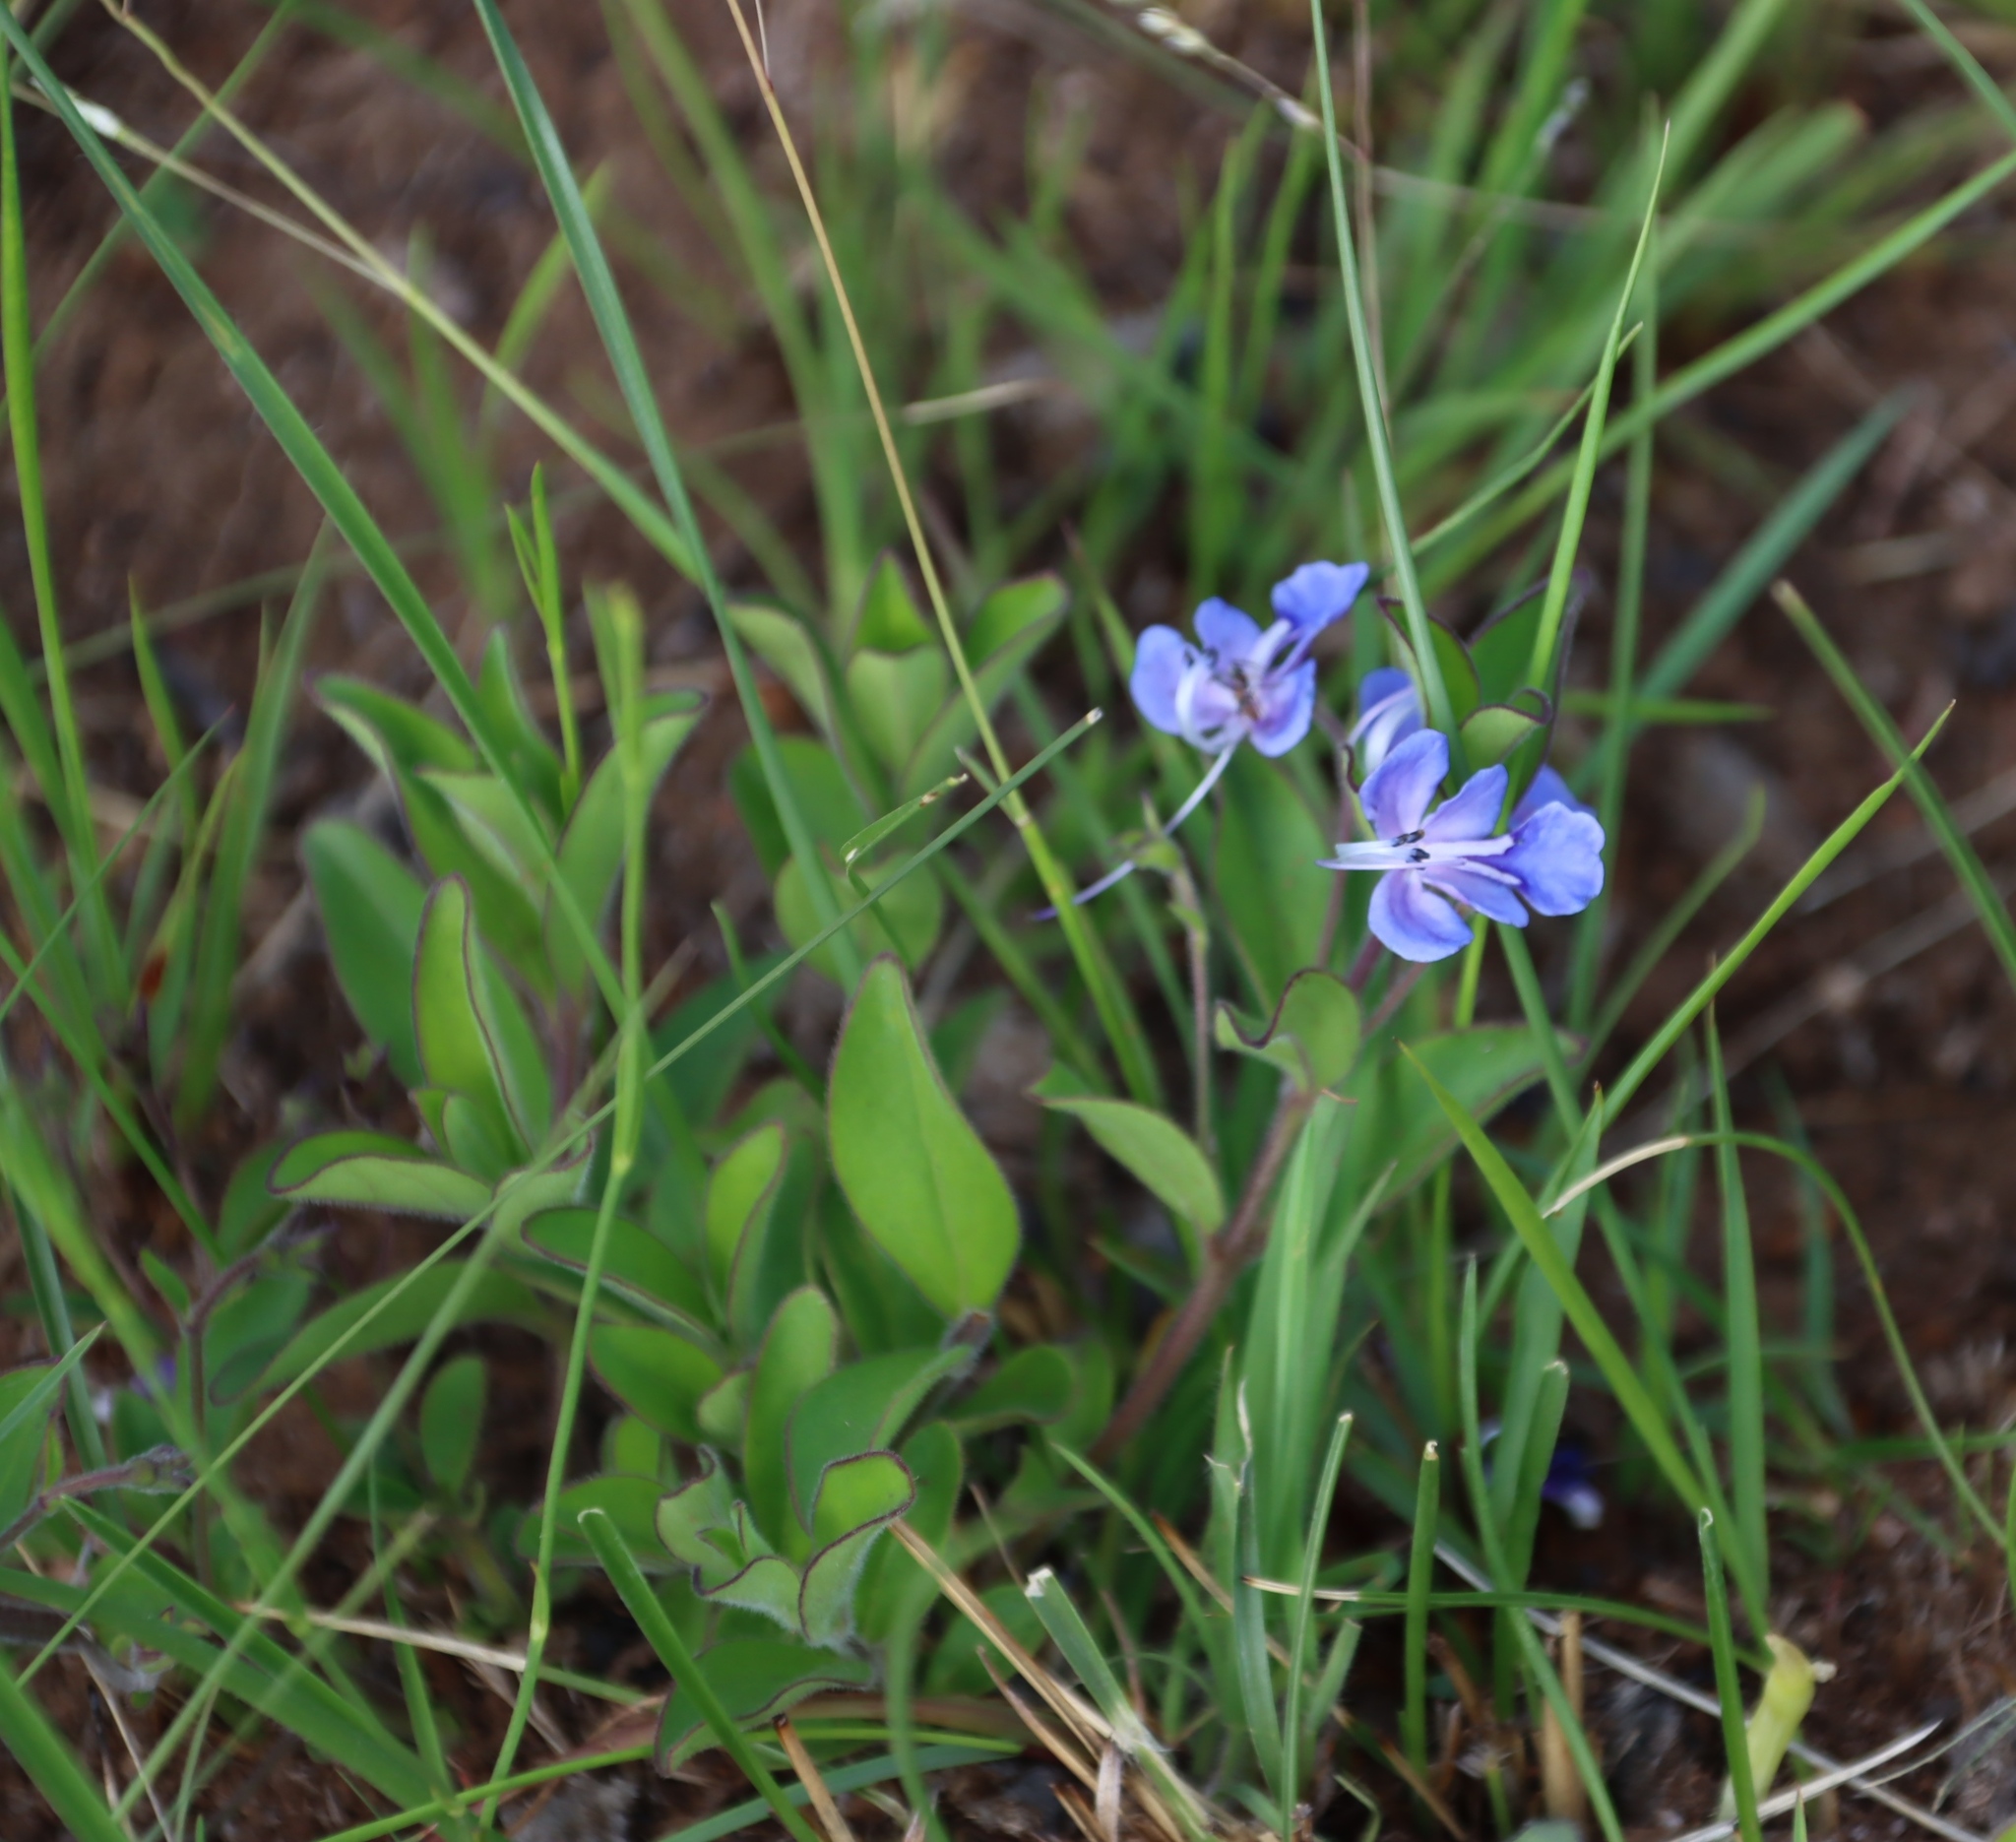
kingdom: Plantae
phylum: Tracheophyta
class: Magnoliopsida
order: Lamiales
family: Lamiaceae
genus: Rotheca
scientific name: Rotheca hirsuta
